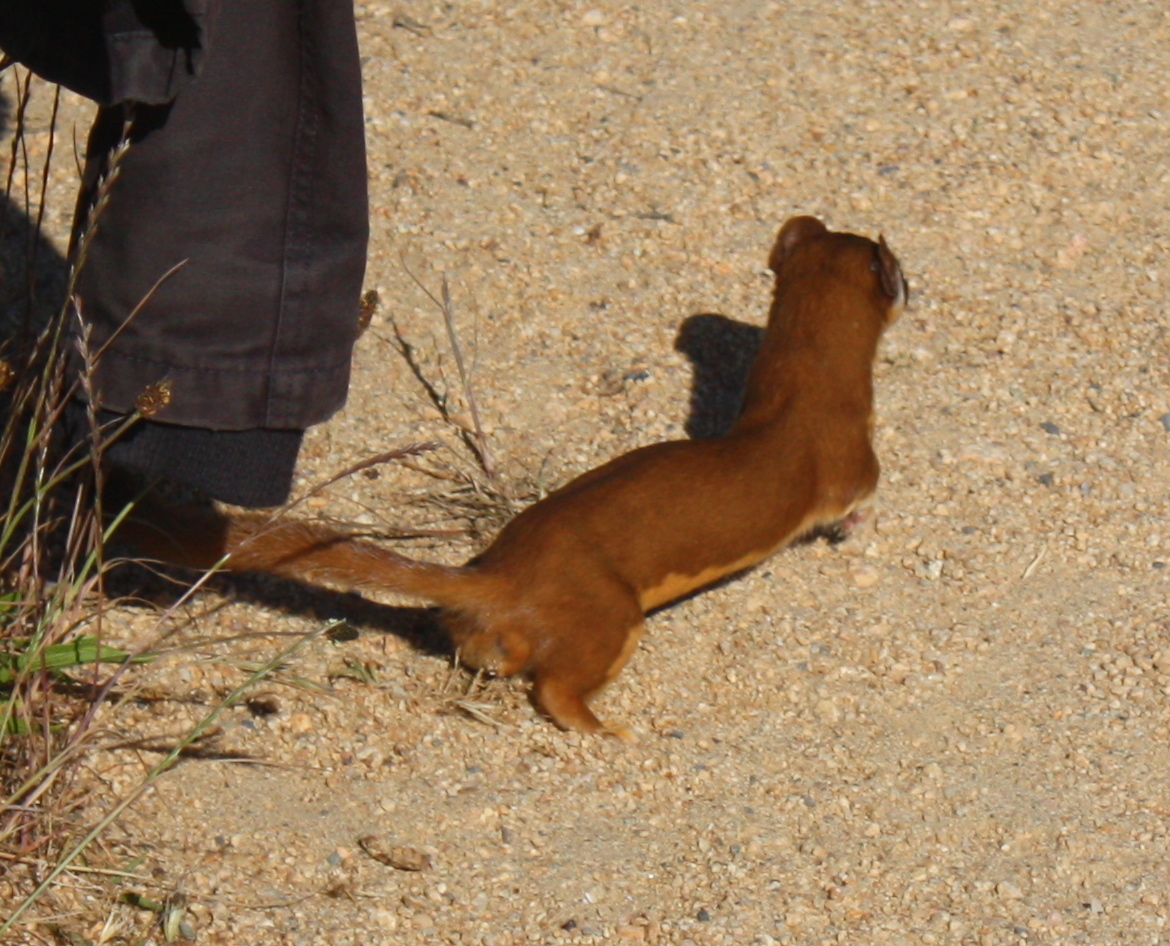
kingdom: Animalia
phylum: Chordata
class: Mammalia
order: Carnivora
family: Mustelidae
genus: Mustela
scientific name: Mustela
